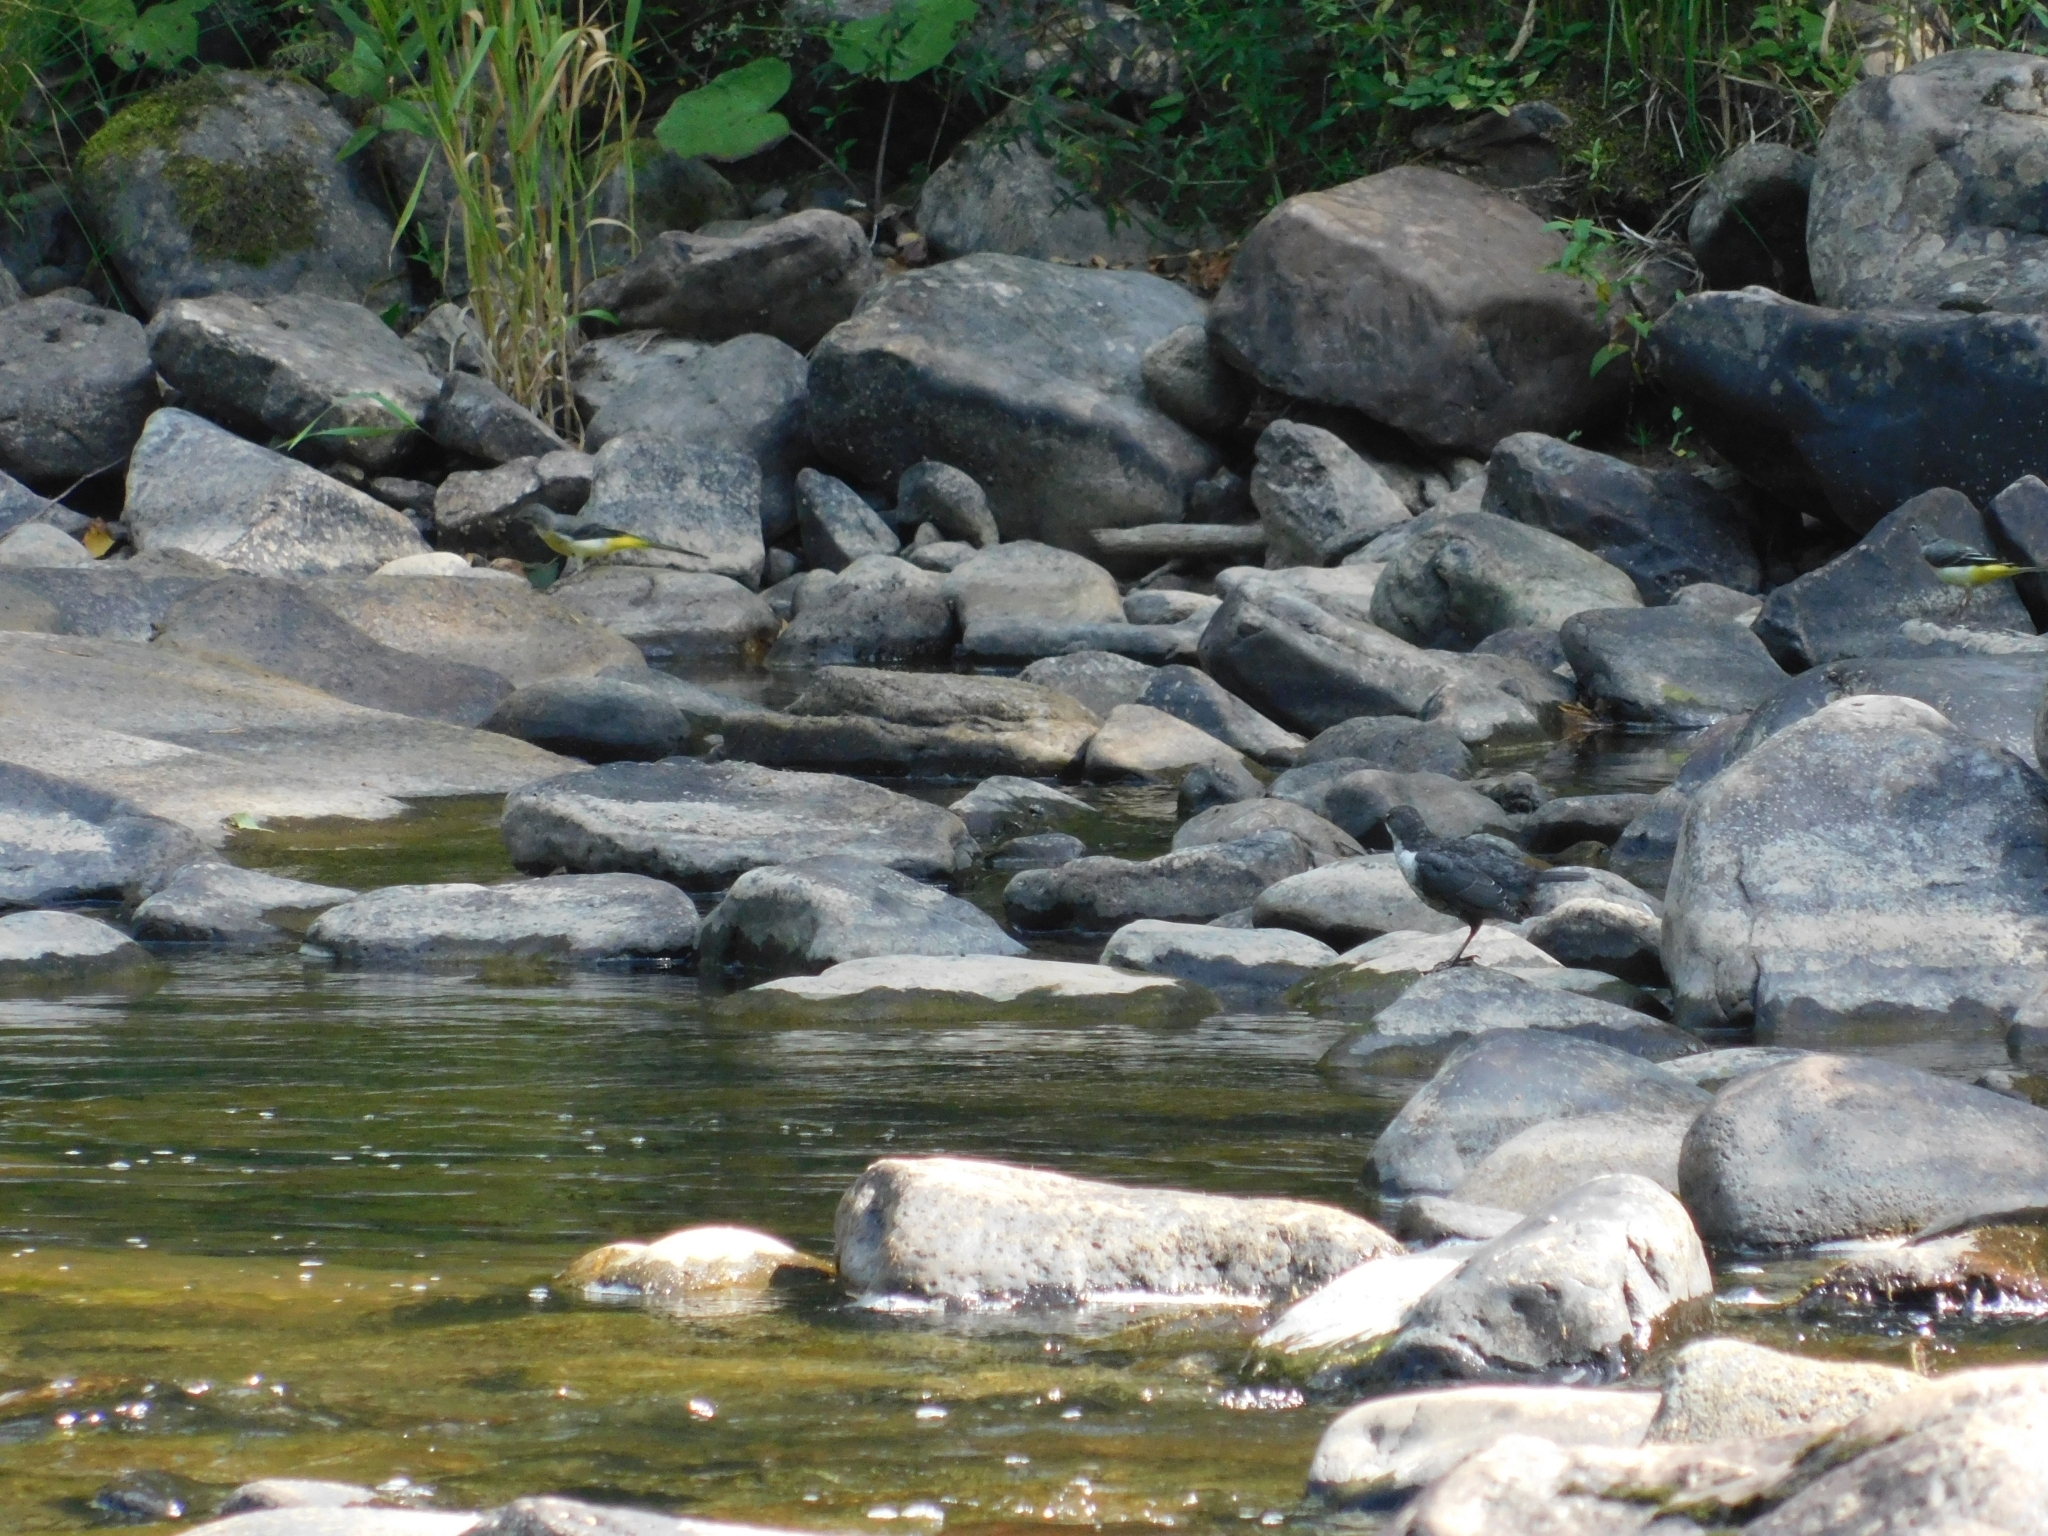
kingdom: Animalia
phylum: Chordata
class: Aves
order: Passeriformes
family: Cinclidae
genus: Cinclus
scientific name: Cinclus cinclus
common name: White-throated dipper
